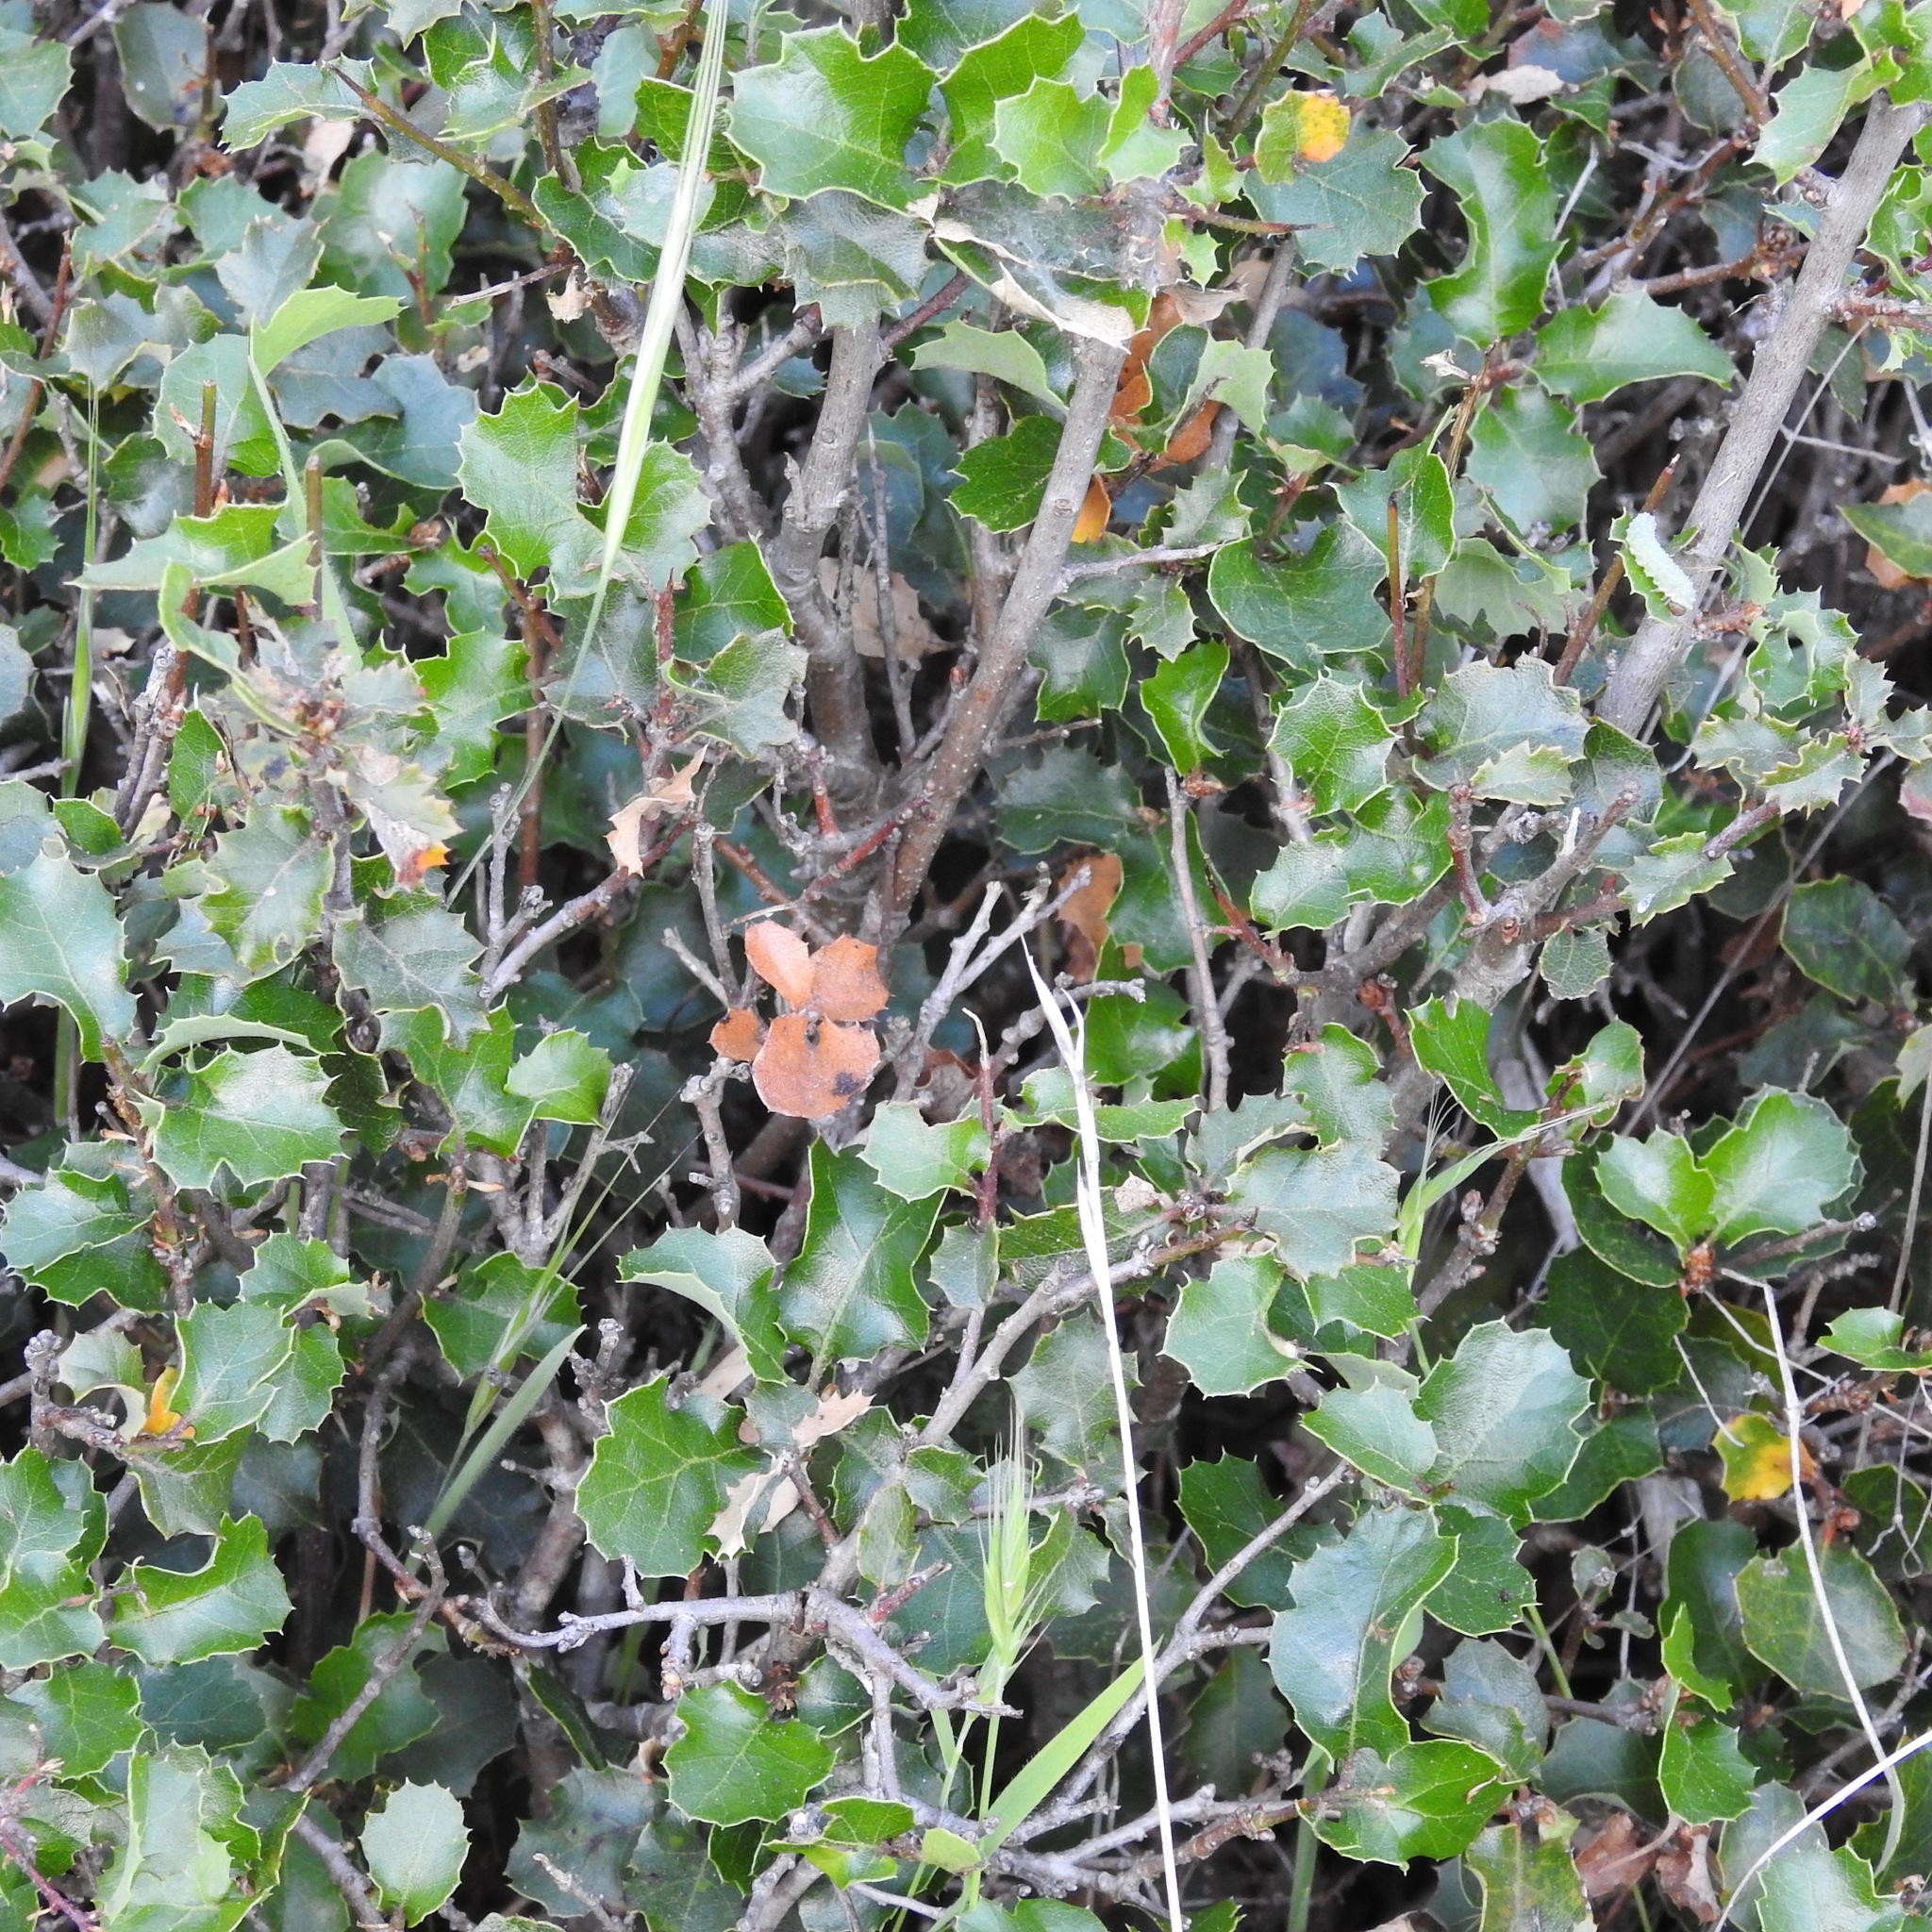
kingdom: Plantae
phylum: Tracheophyta
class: Magnoliopsida
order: Fagales
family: Fagaceae
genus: Quercus
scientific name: Quercus berberidifolia
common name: California scrub oak
